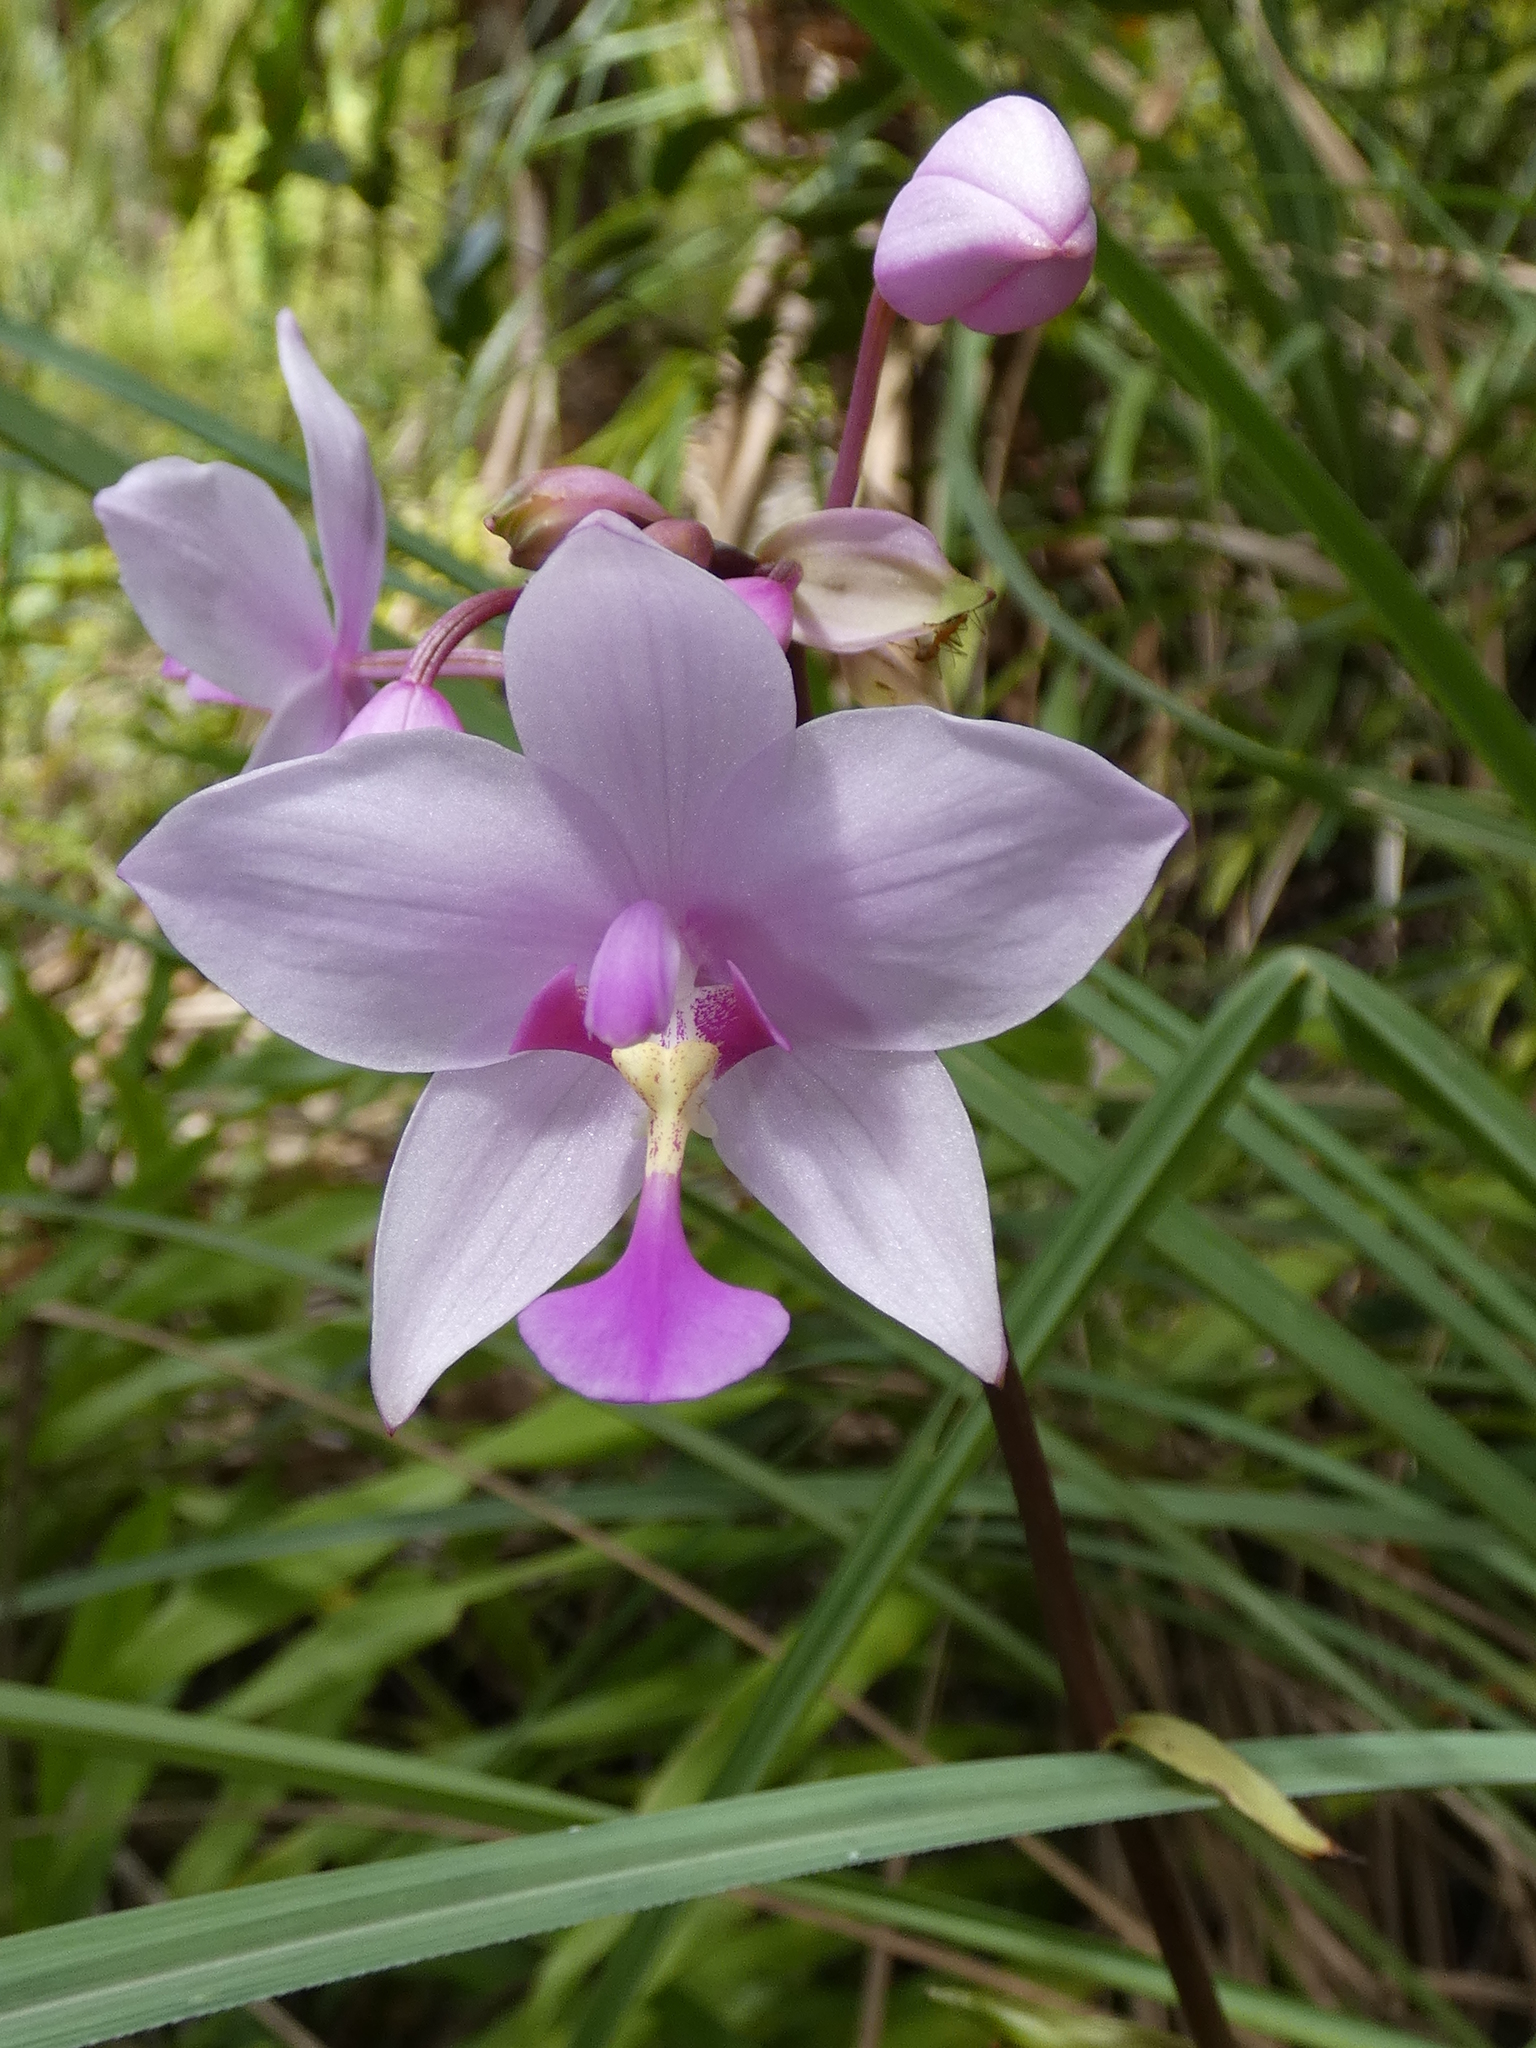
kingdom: Plantae
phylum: Tracheophyta
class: Liliopsida
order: Asparagales
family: Orchidaceae
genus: Spathoglottis
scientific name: Spathoglottis plicata
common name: Philippine ground orchid
